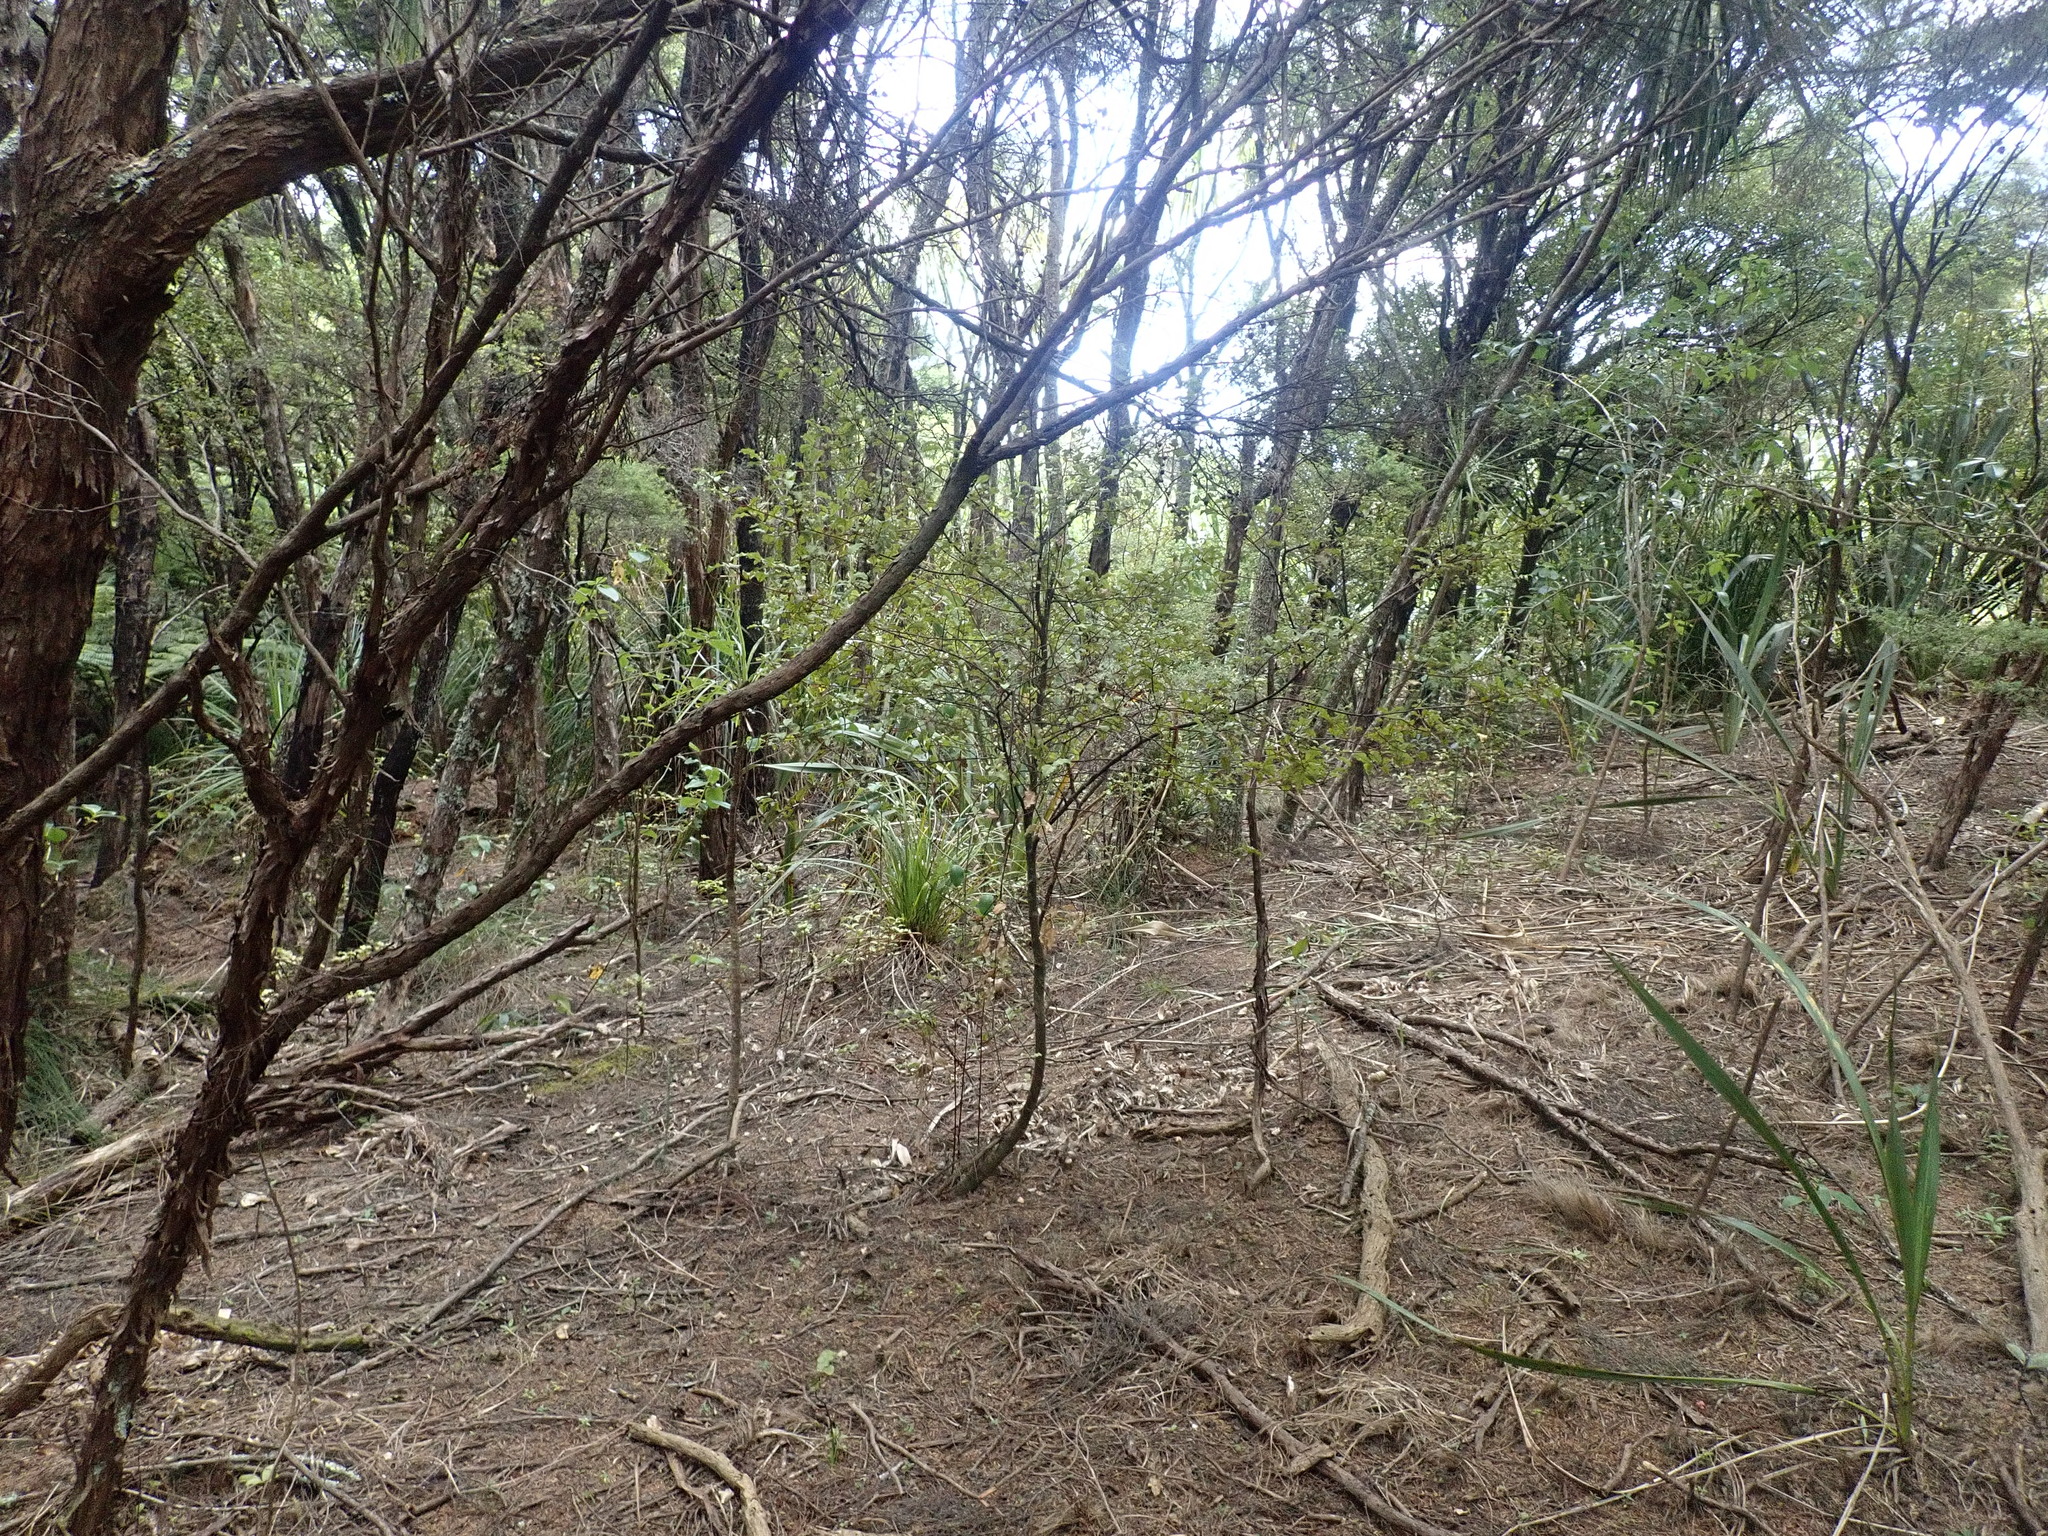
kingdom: Plantae
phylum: Tracheophyta
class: Magnoliopsida
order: Ericales
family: Primulaceae
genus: Myrsine
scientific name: Myrsine australis
